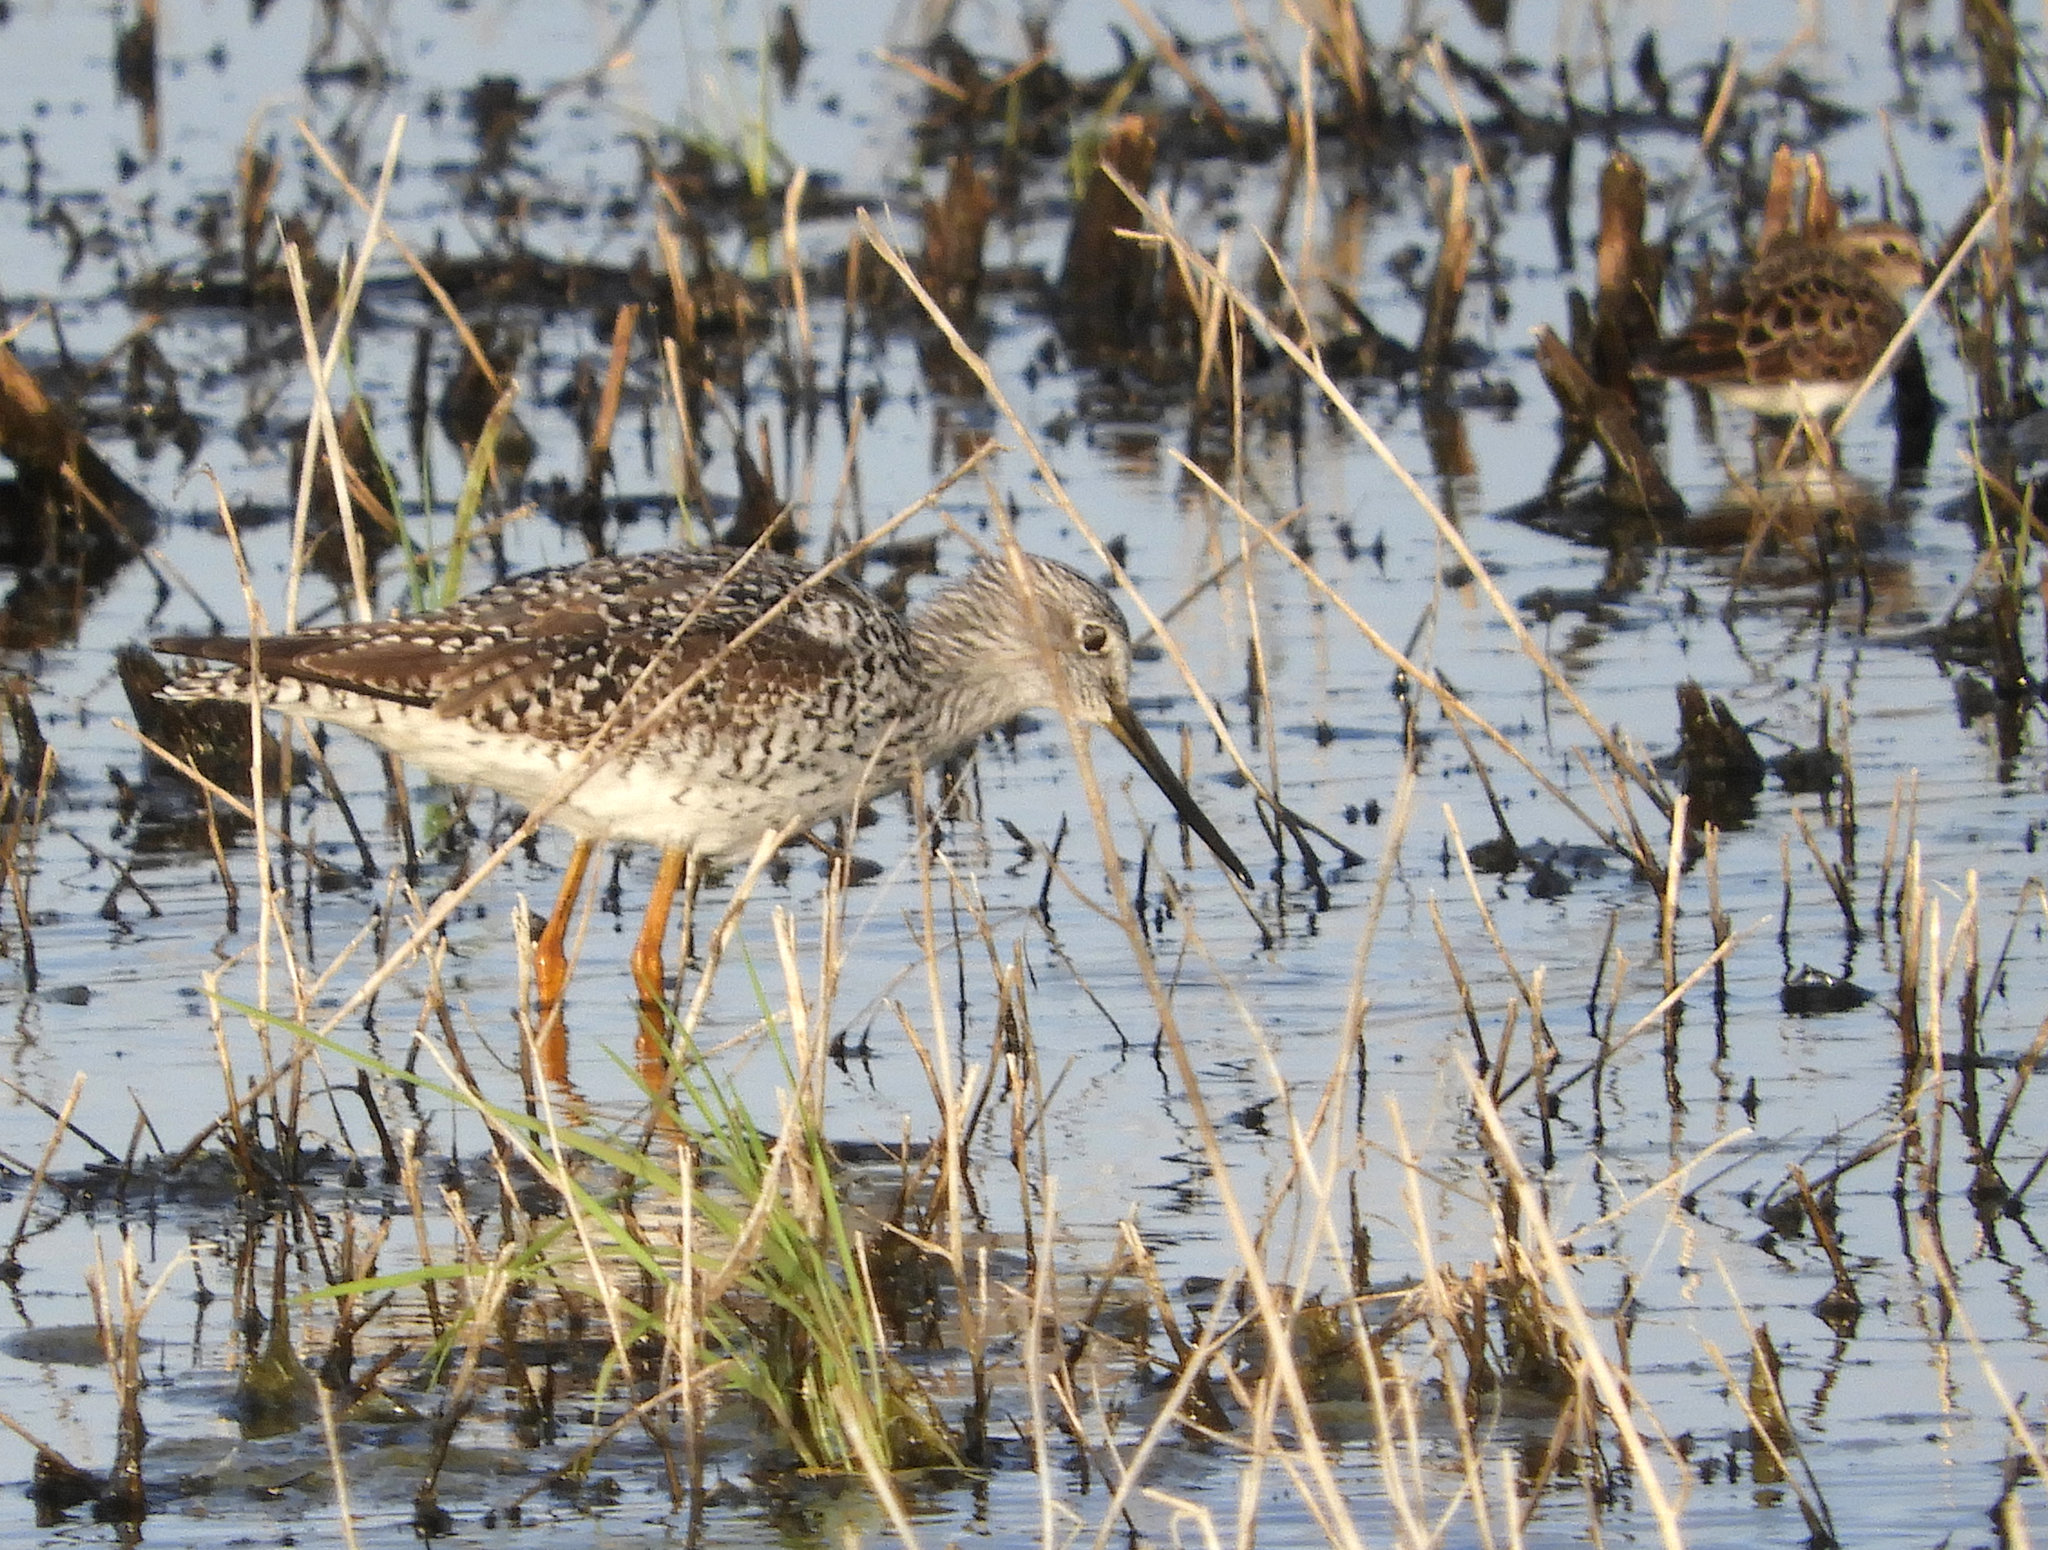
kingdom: Animalia
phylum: Chordata
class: Aves
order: Charadriiformes
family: Scolopacidae
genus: Tringa
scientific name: Tringa melanoleuca
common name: Greater yellowlegs
